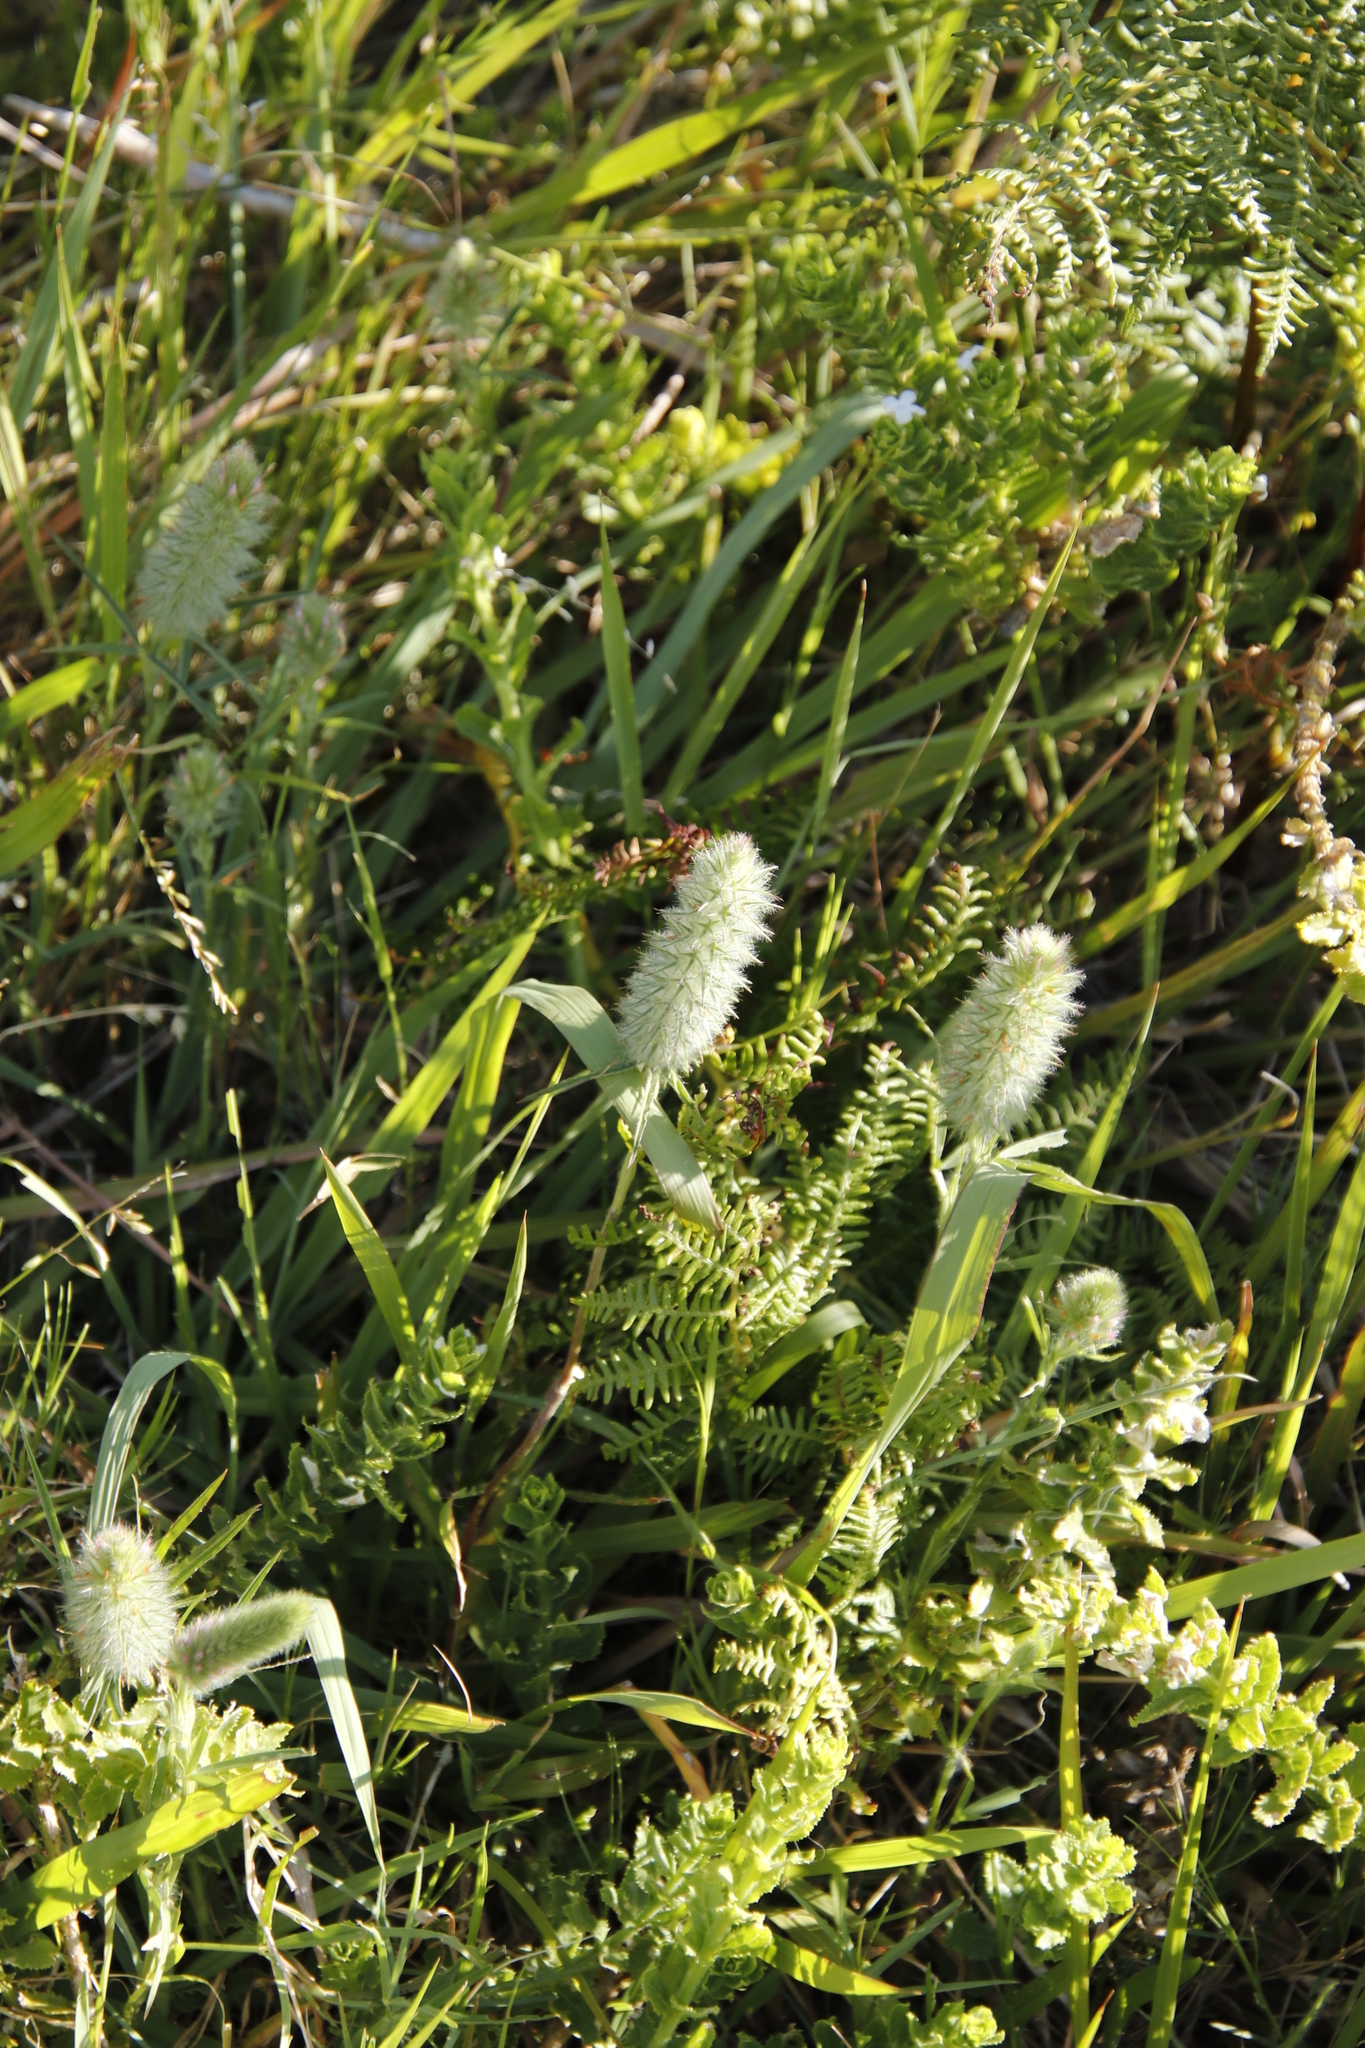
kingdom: Plantae
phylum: Tracheophyta
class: Magnoliopsida
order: Fabales
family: Fabaceae
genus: Trifolium
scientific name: Trifolium angustifolium
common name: Narrow clover
